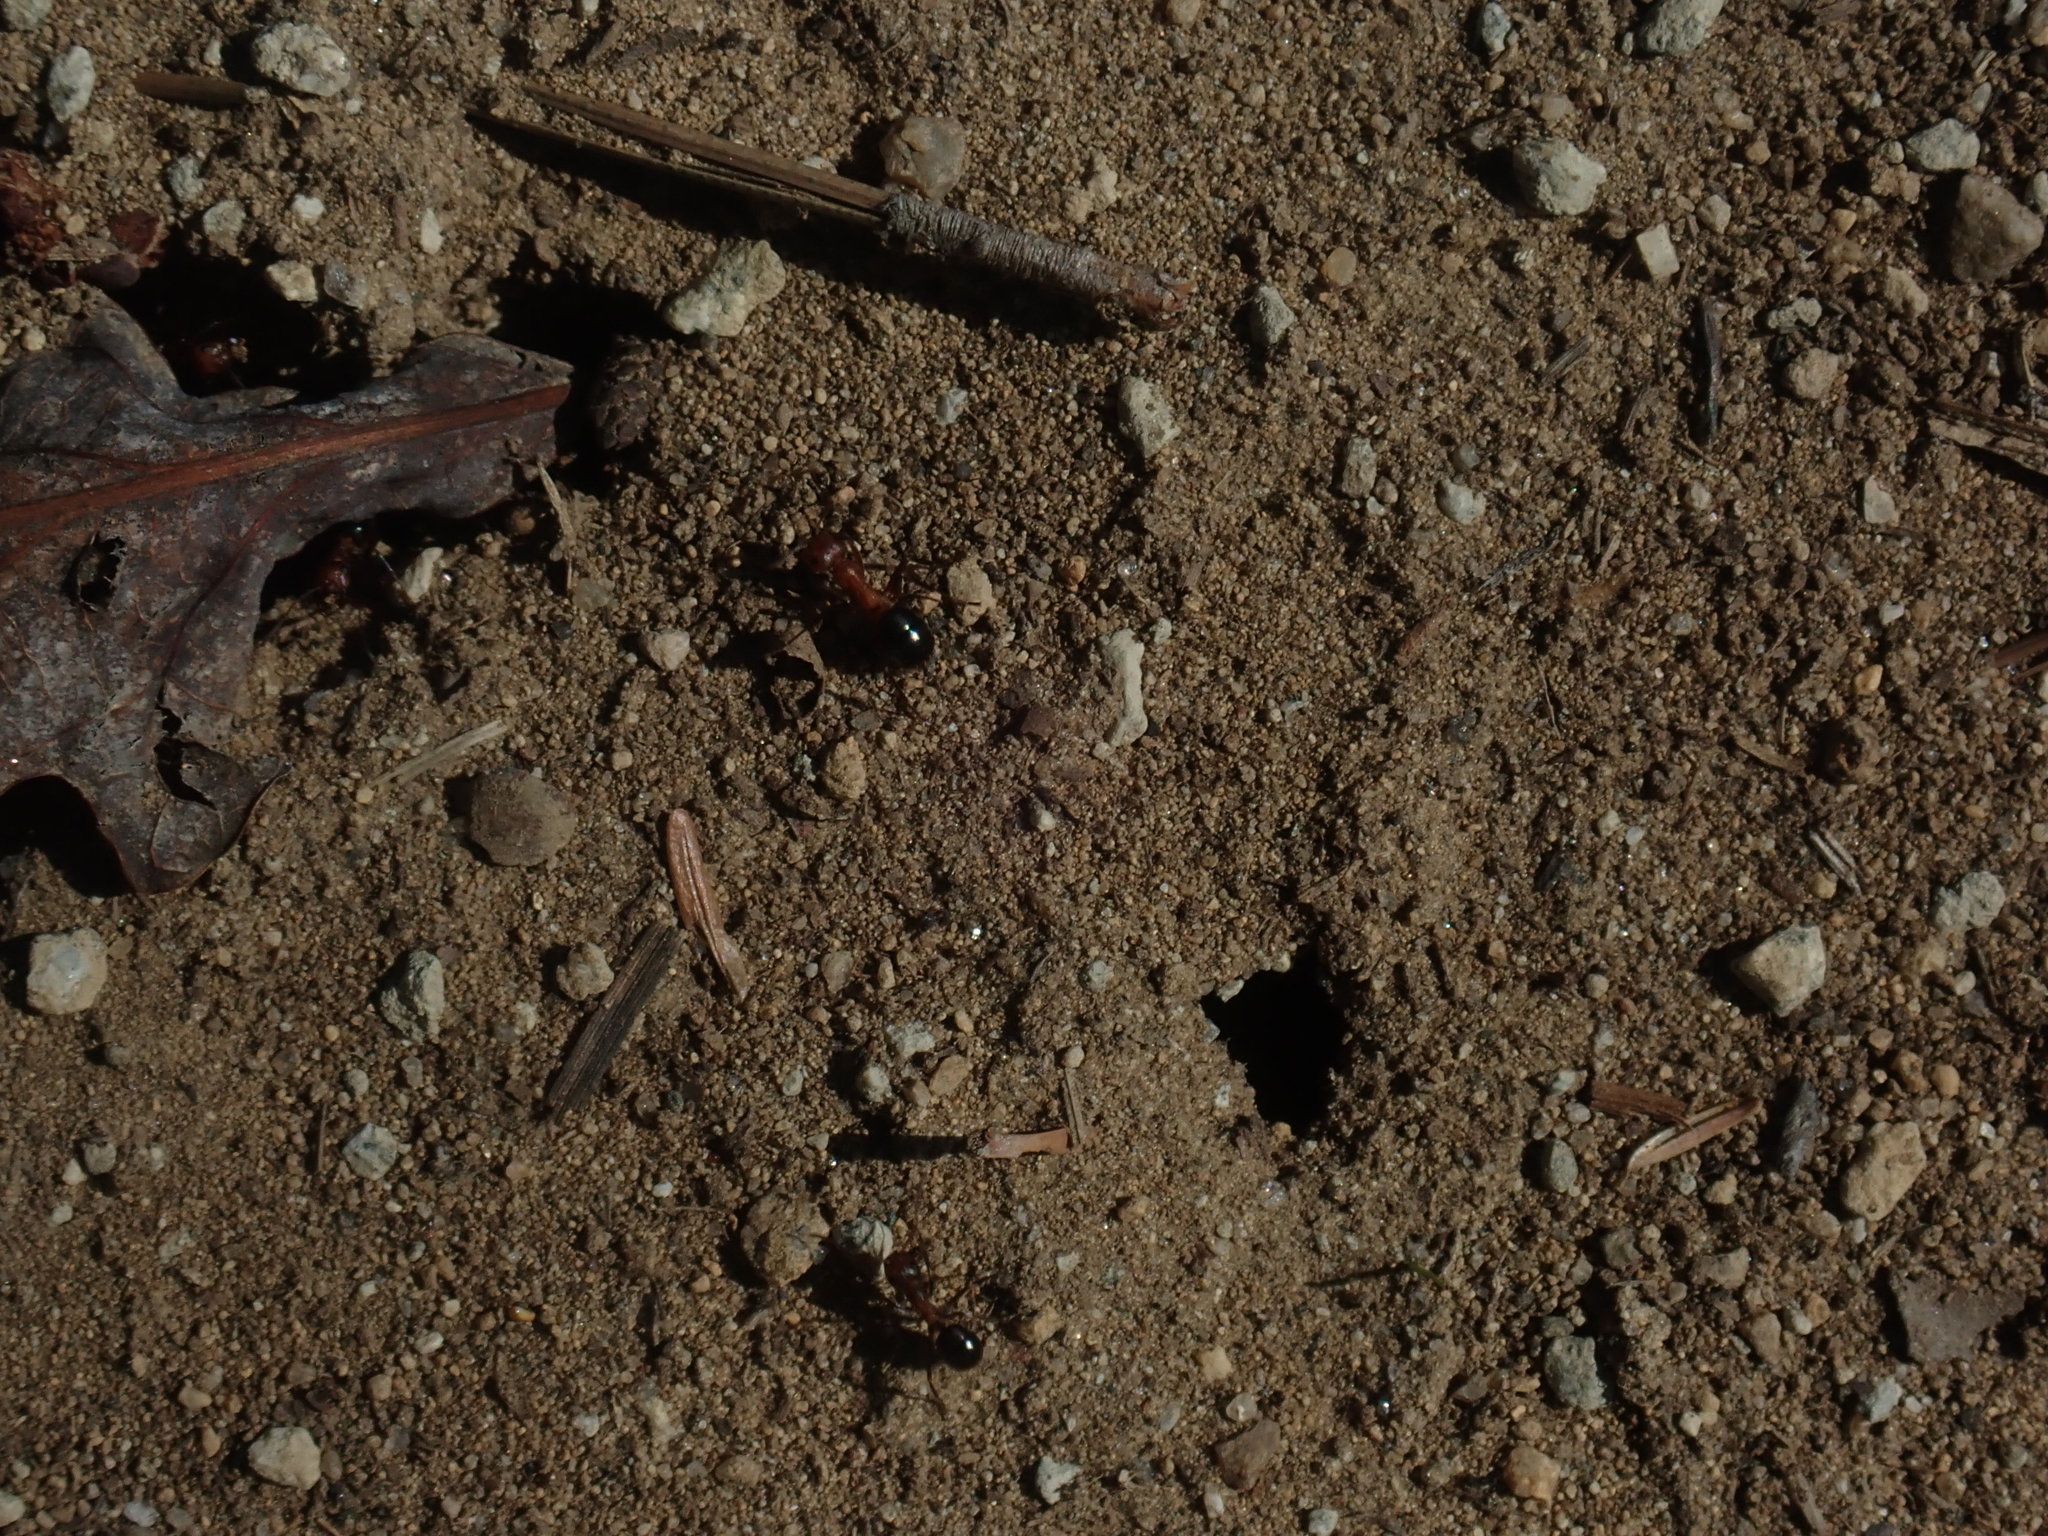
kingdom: Animalia
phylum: Arthropoda
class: Insecta
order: Hymenoptera
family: Formicidae
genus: Formica
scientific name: Formica exsectoides
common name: Allegheny mound ant
